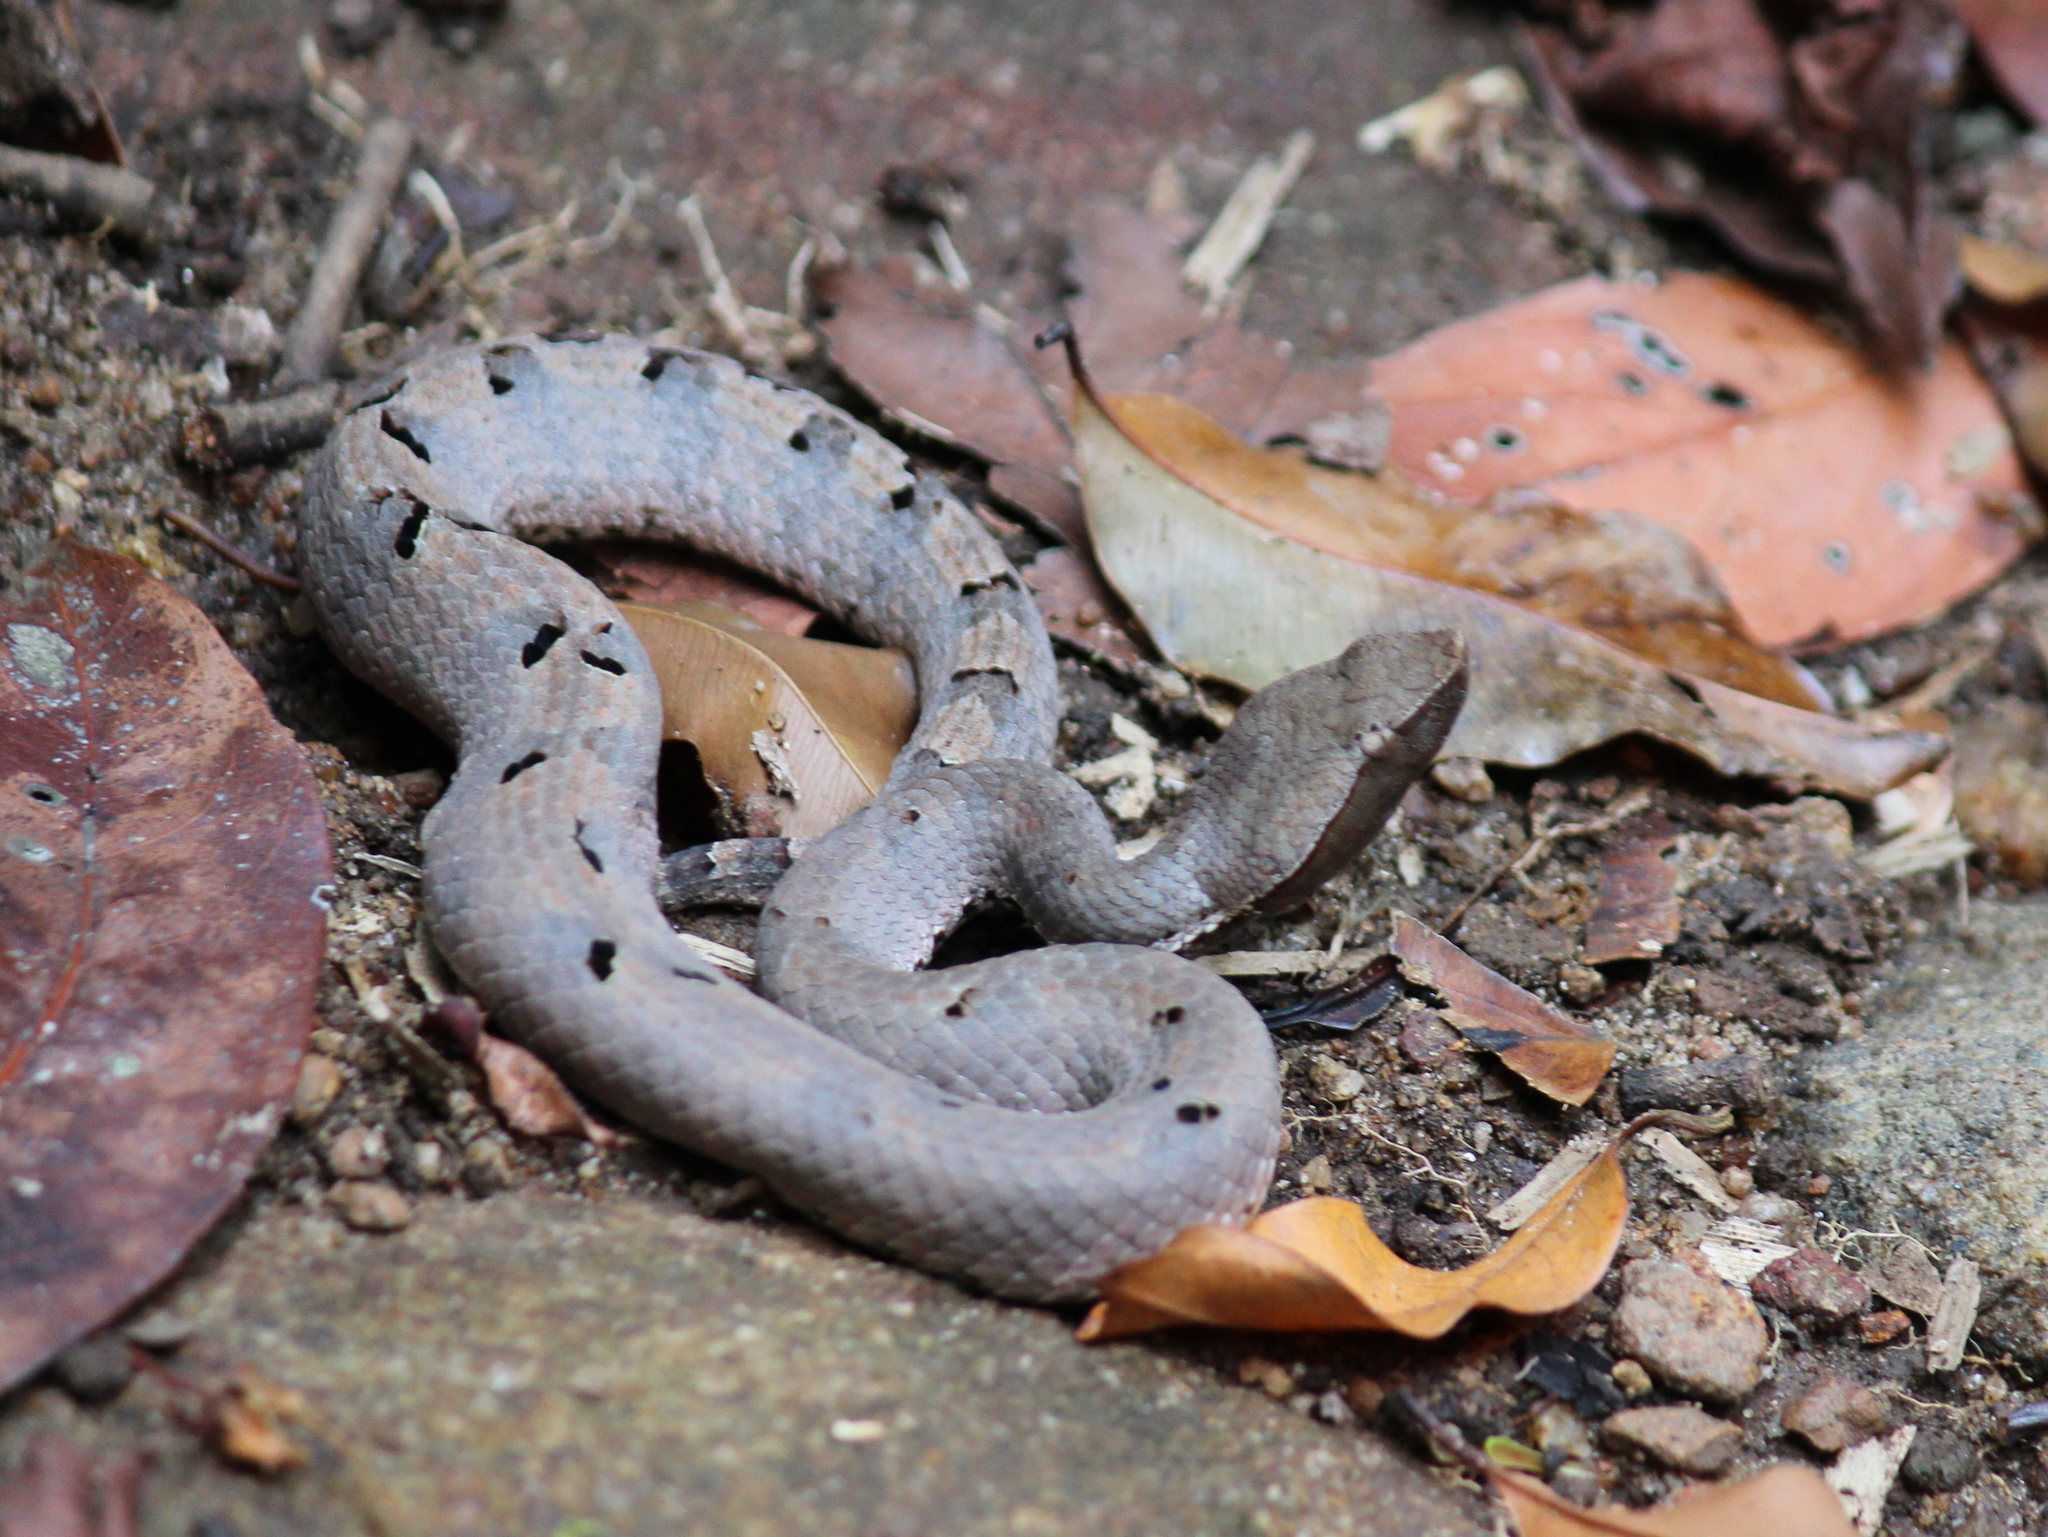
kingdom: Animalia
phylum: Chordata
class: Squamata
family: Viperidae
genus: Hypnale
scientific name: Hypnale hypnale
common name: Hump-nosed moccasin
